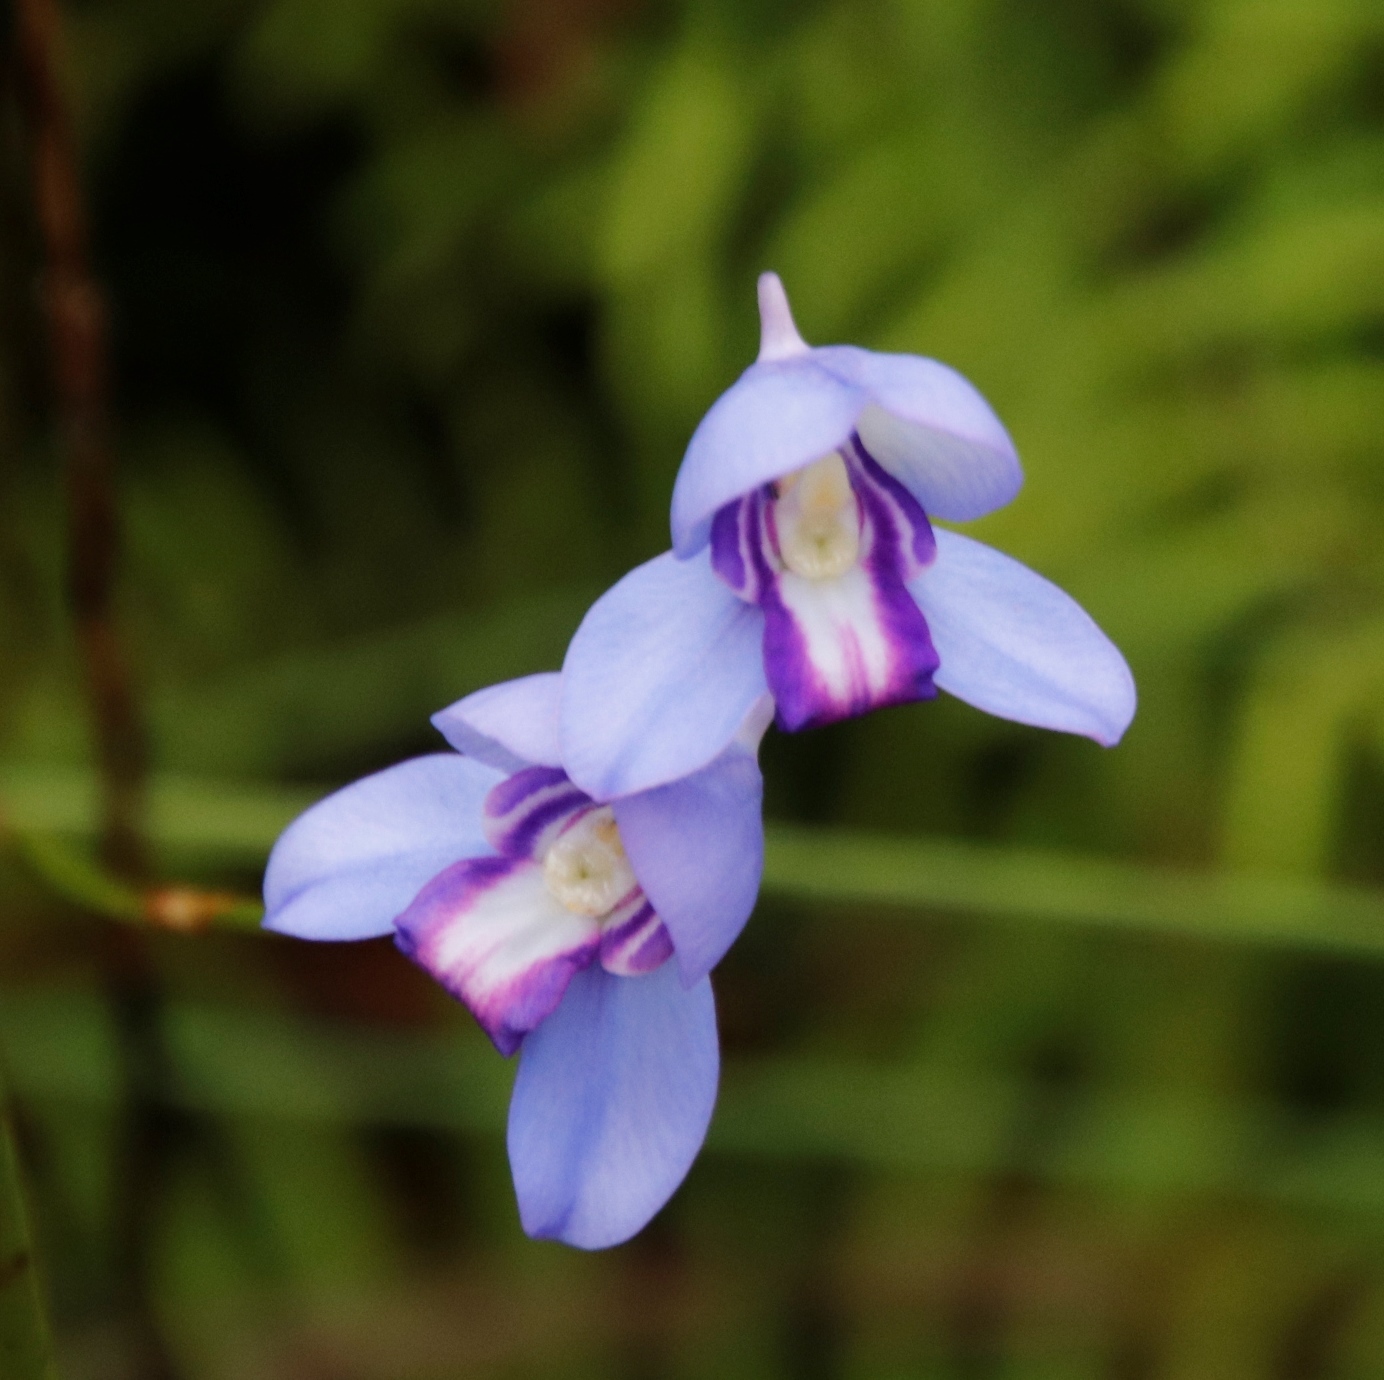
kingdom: Plantae
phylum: Tracheophyta
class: Liliopsida
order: Asparagales
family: Orchidaceae
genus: Disa
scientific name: Disa graminifolia
